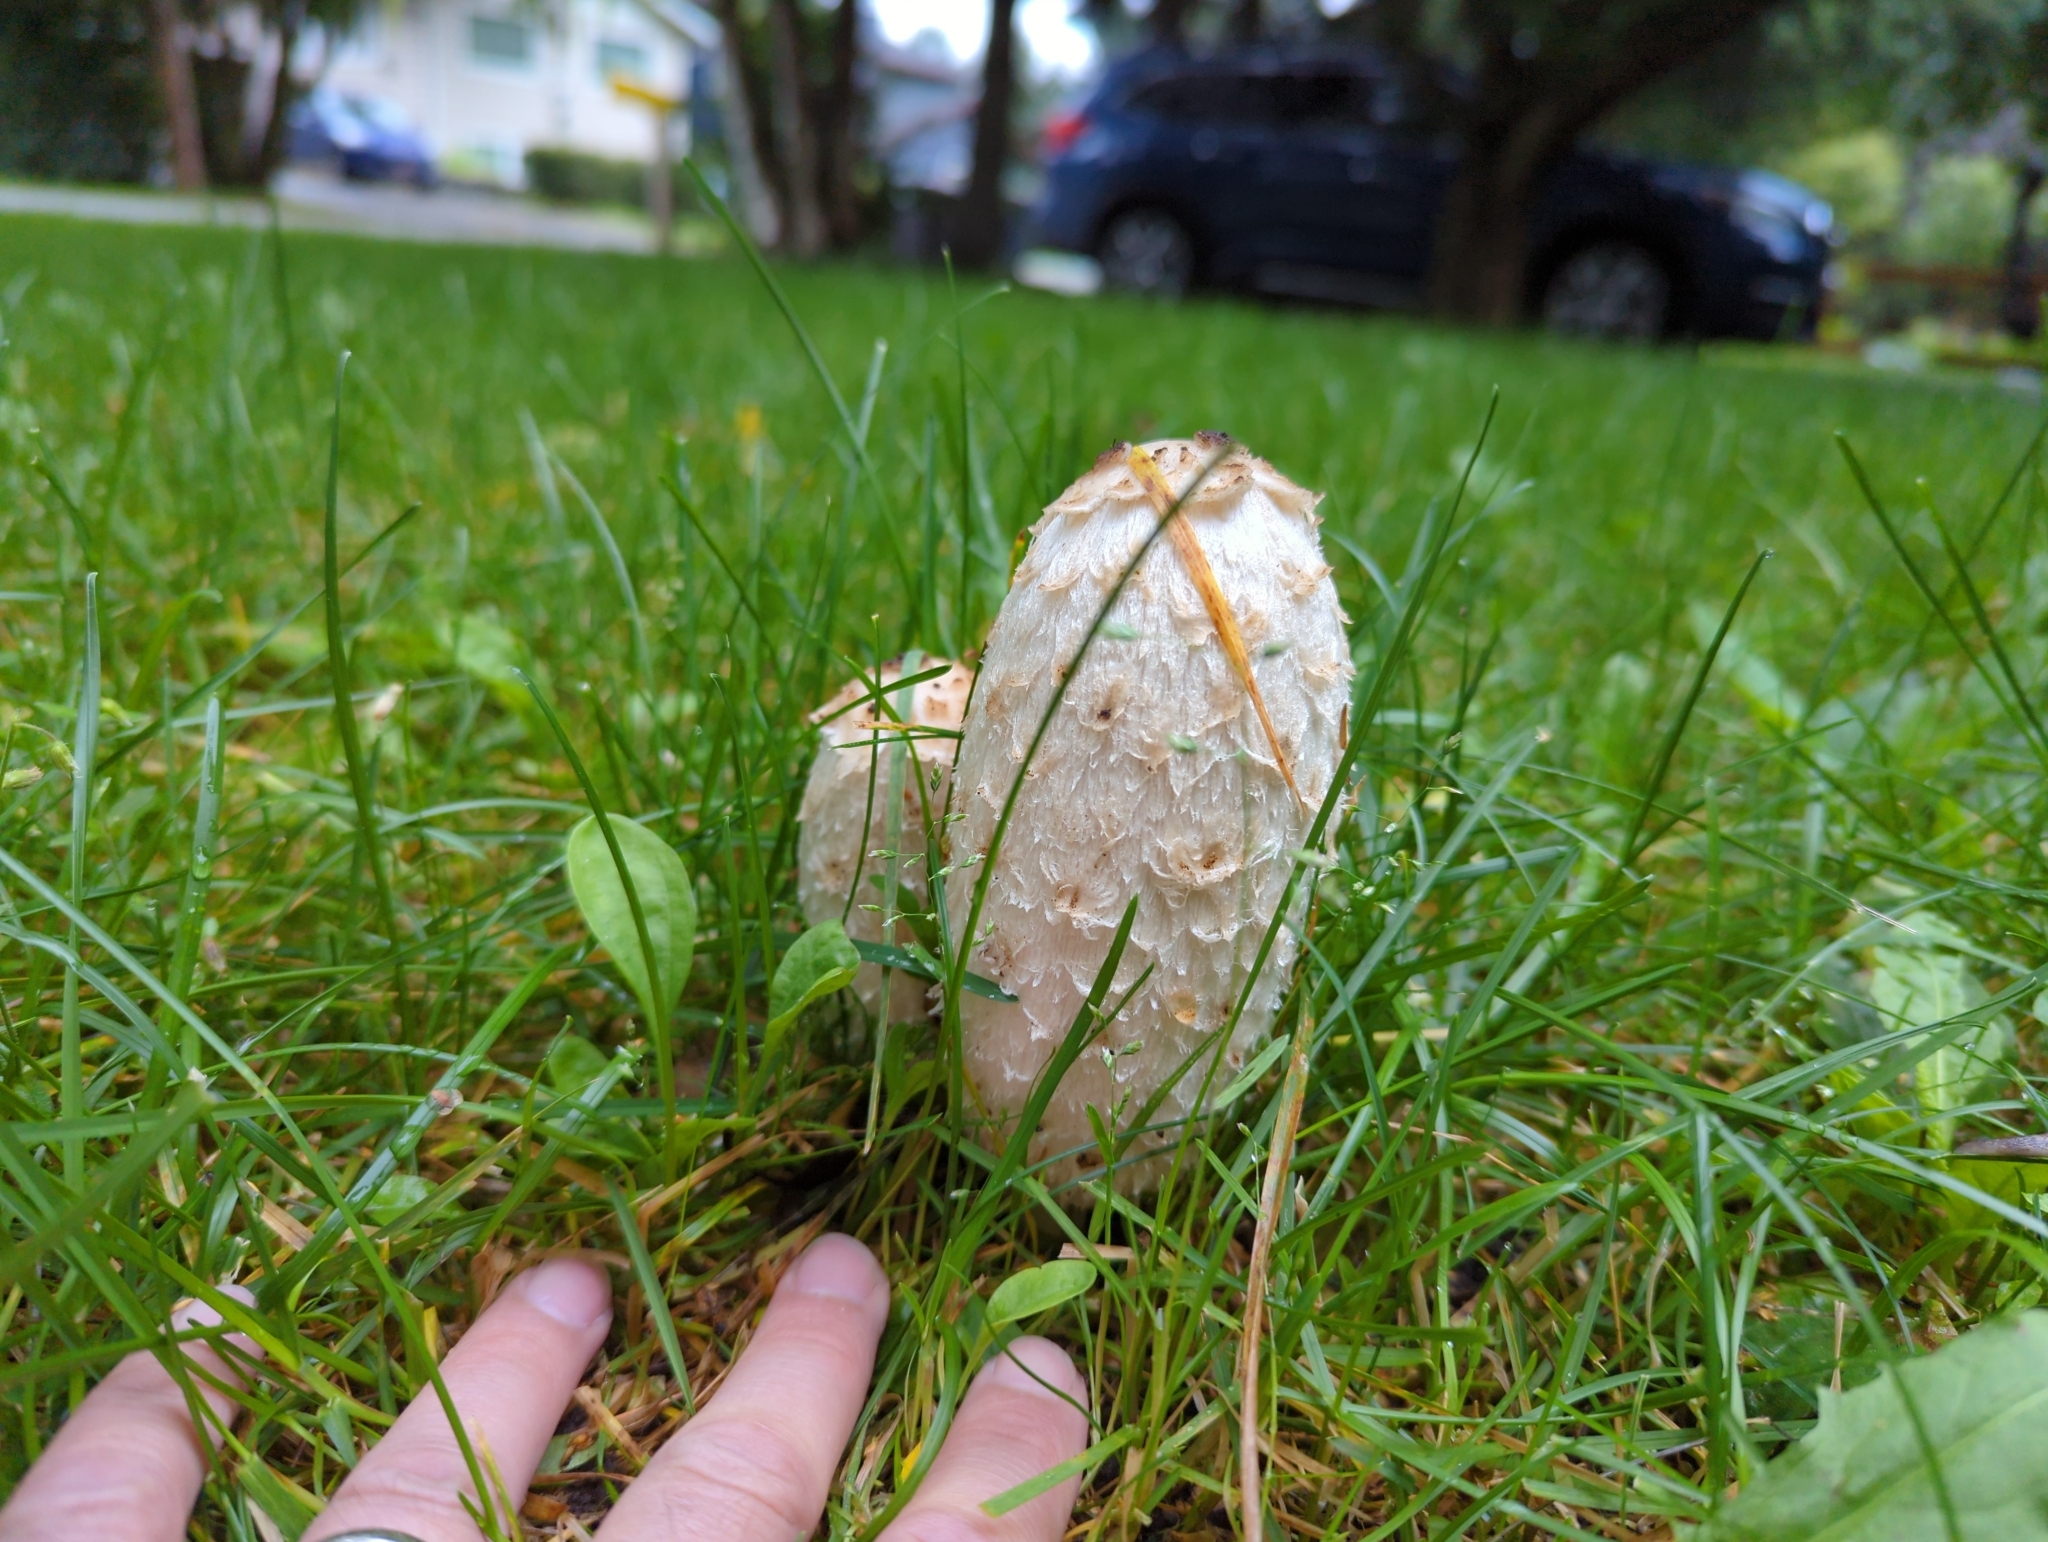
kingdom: Fungi
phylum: Basidiomycota
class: Agaricomycetes
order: Agaricales
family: Agaricaceae
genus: Coprinus
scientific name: Coprinus comatus
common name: Lawyer's wig
